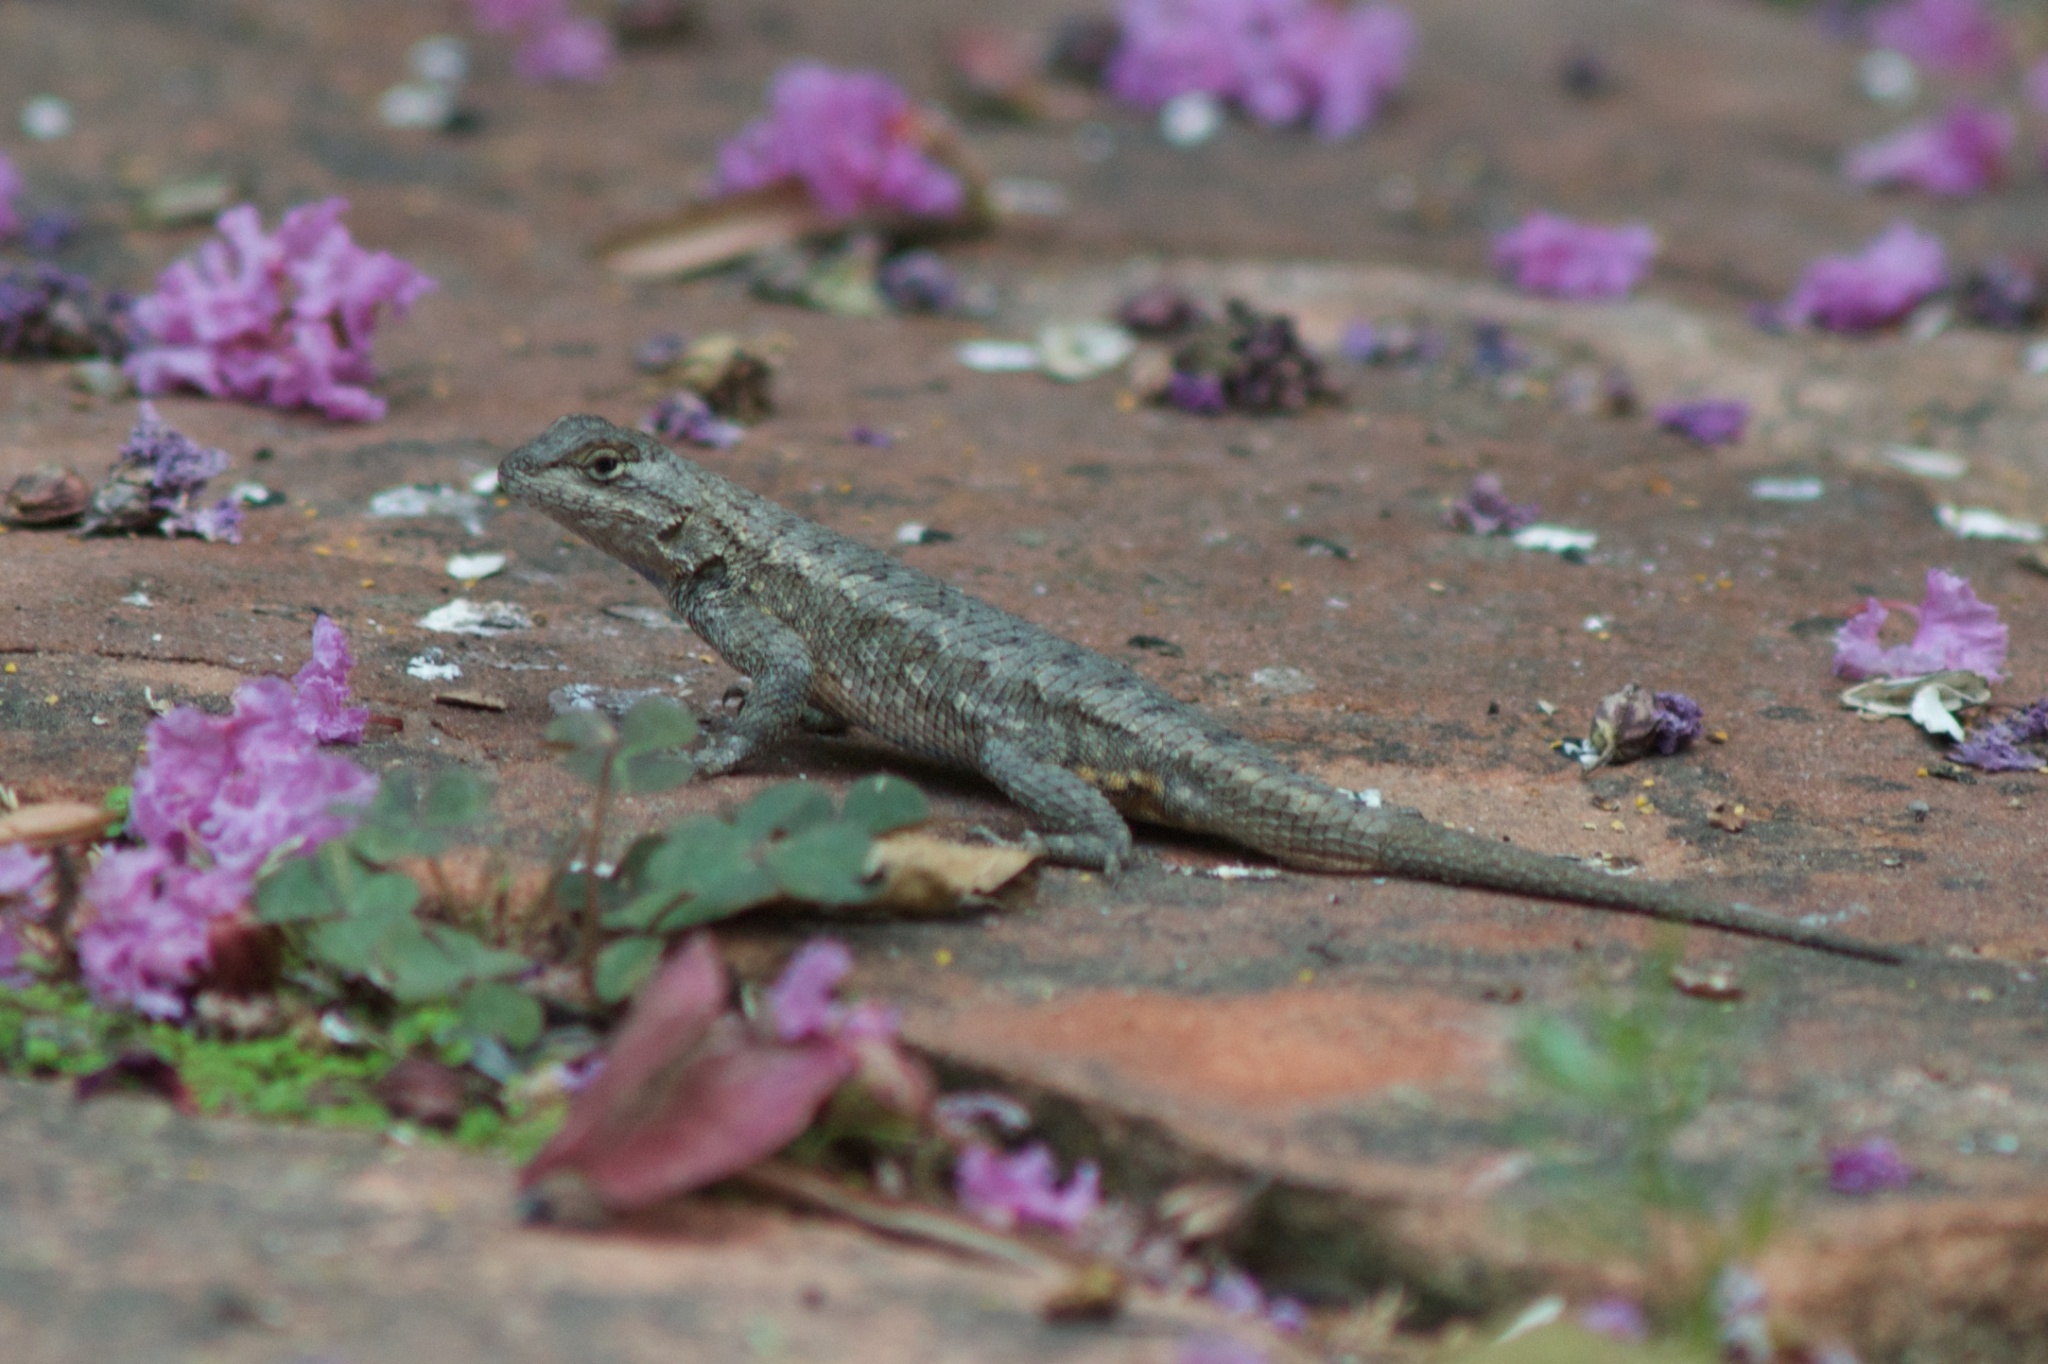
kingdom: Animalia
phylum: Chordata
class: Squamata
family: Phrynosomatidae
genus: Sceloporus
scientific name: Sceloporus occidentalis
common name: Western fence lizard
